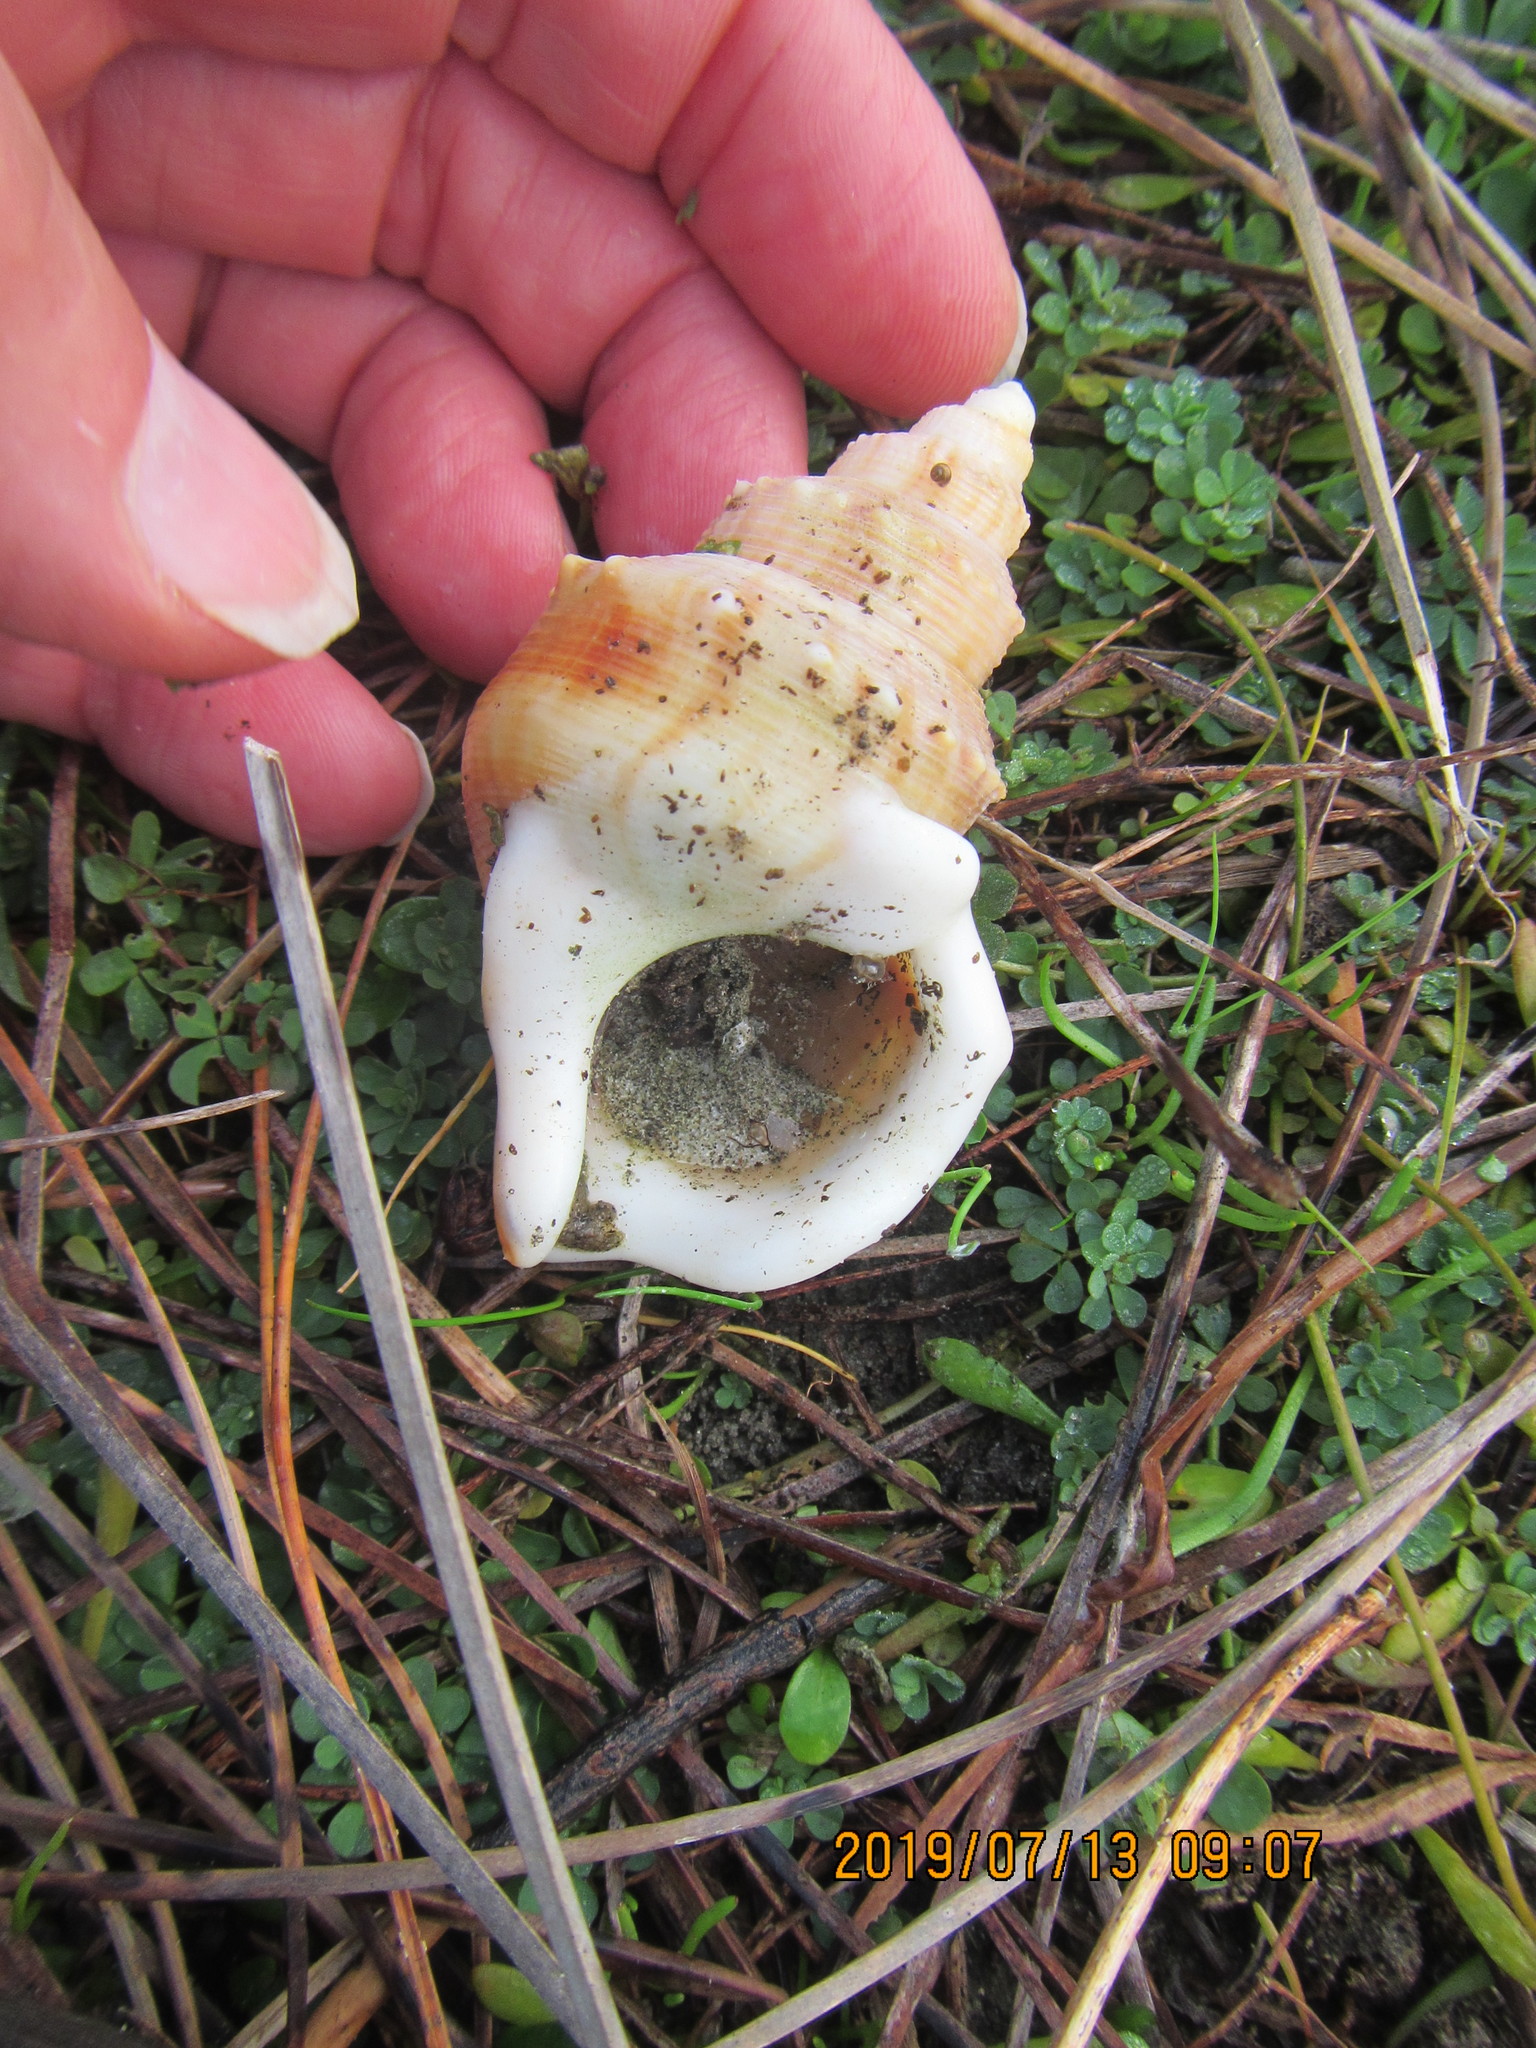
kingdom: Animalia
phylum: Mollusca
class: Gastropoda
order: Littorinimorpha
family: Struthiolariidae
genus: Struthiolaria
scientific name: Struthiolaria papulosa
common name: Large ostrich foot
